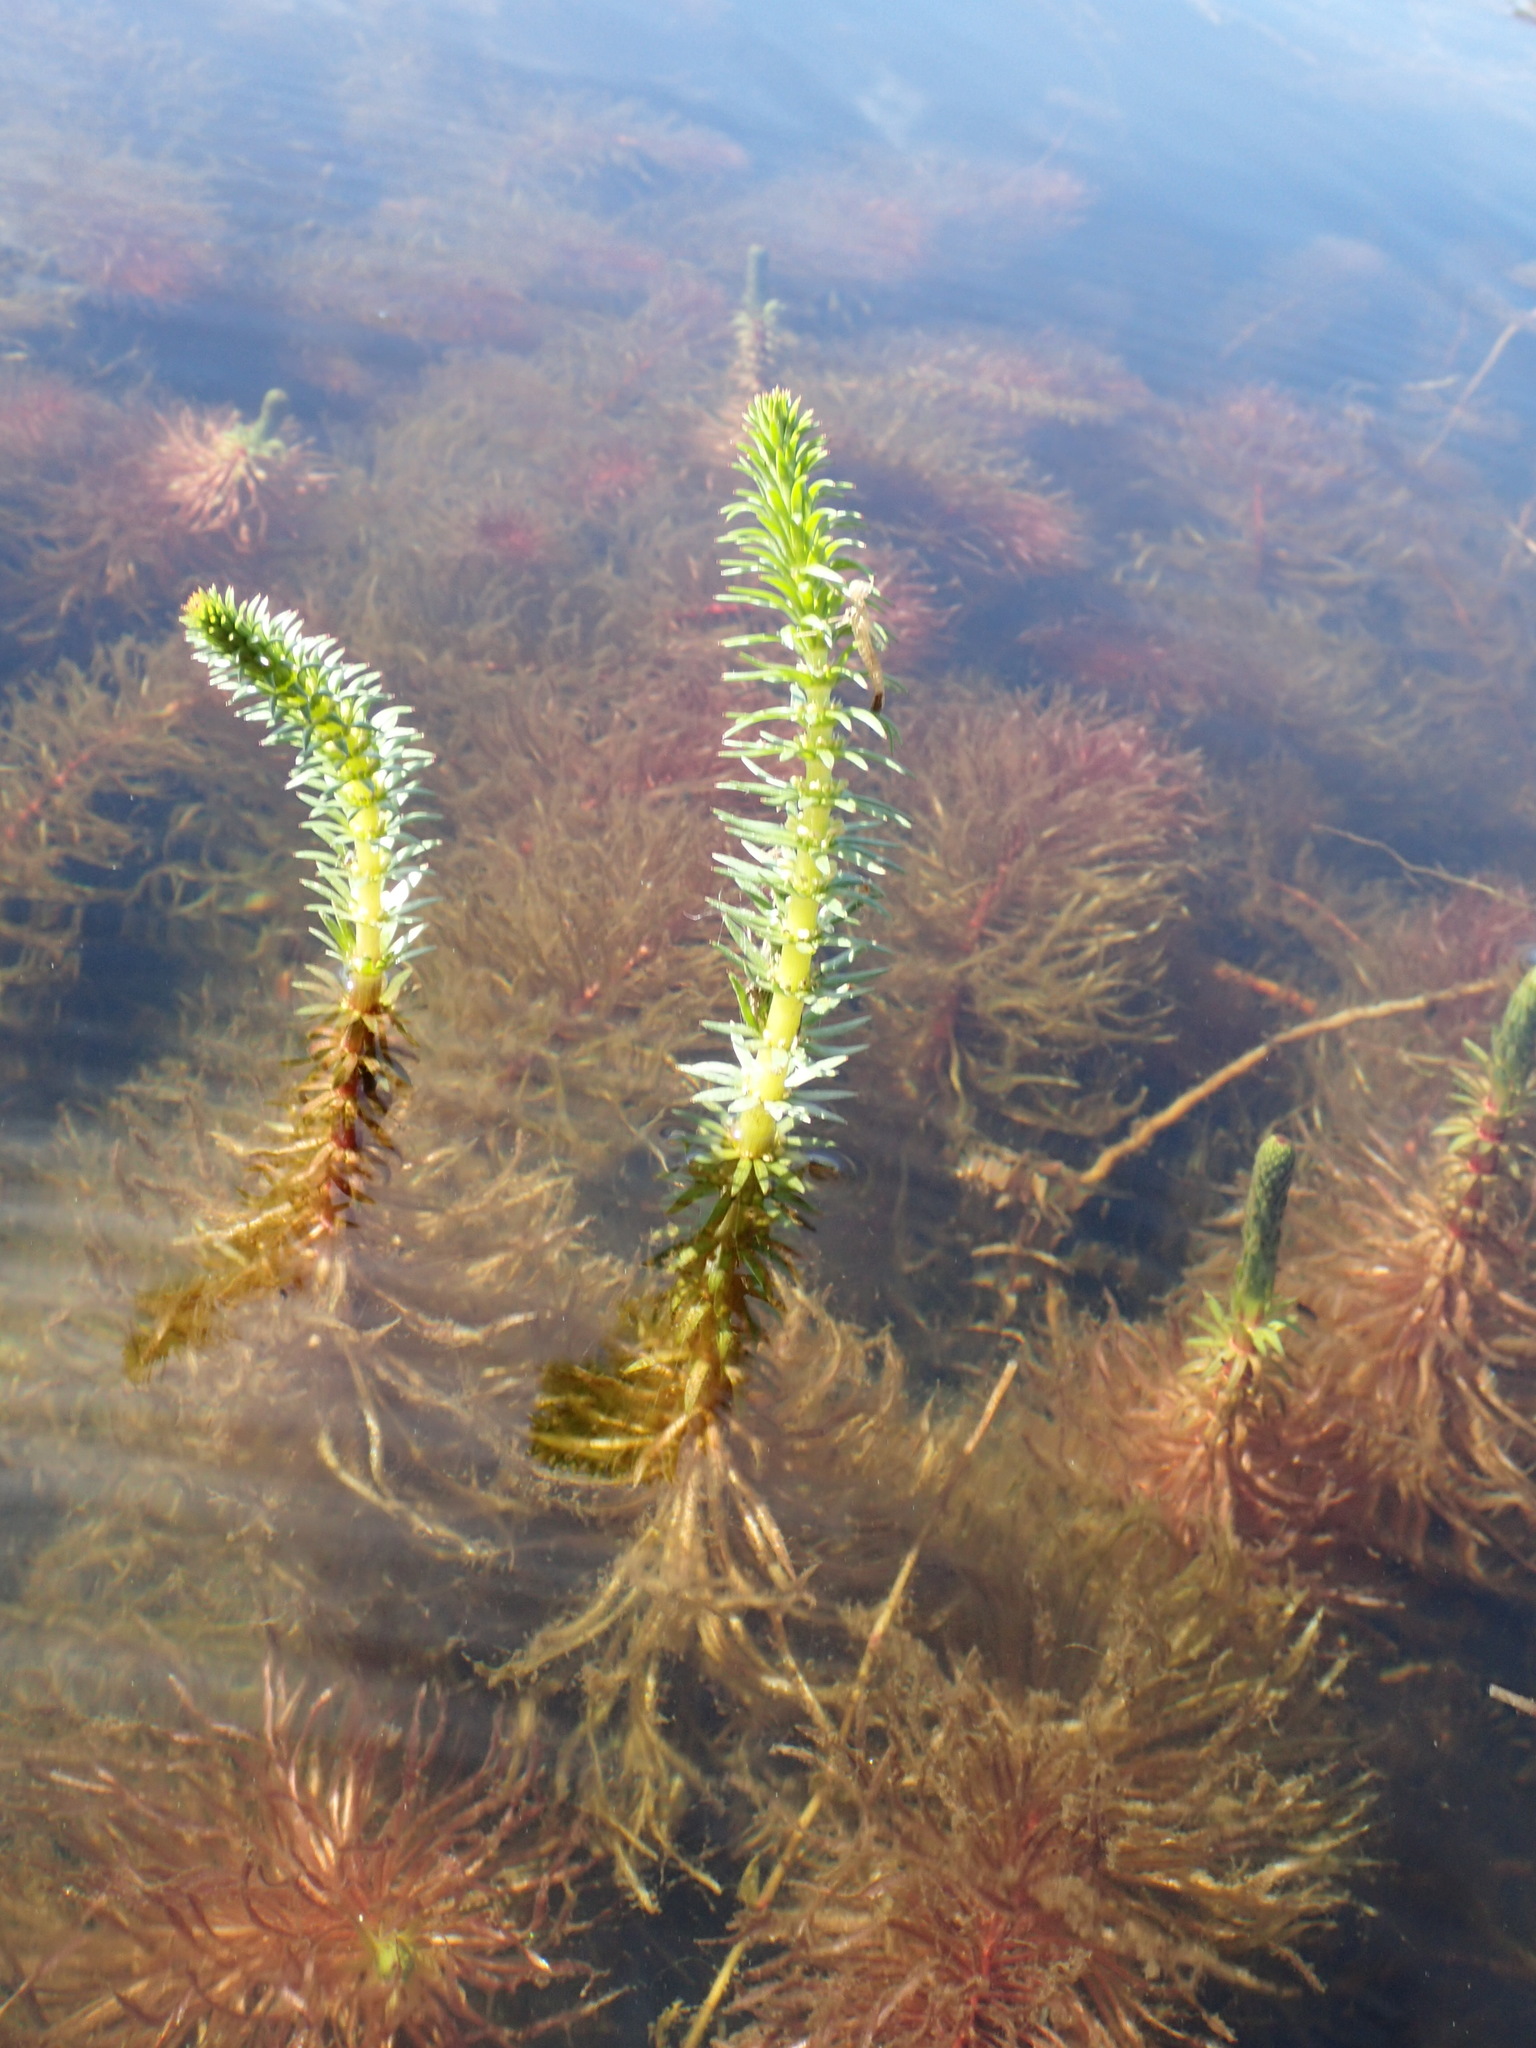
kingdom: Plantae
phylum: Tracheophyta
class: Magnoliopsida
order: Lamiales
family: Plantaginaceae
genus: Hippuris
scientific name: Hippuris vulgaris
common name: Mare's-tail
